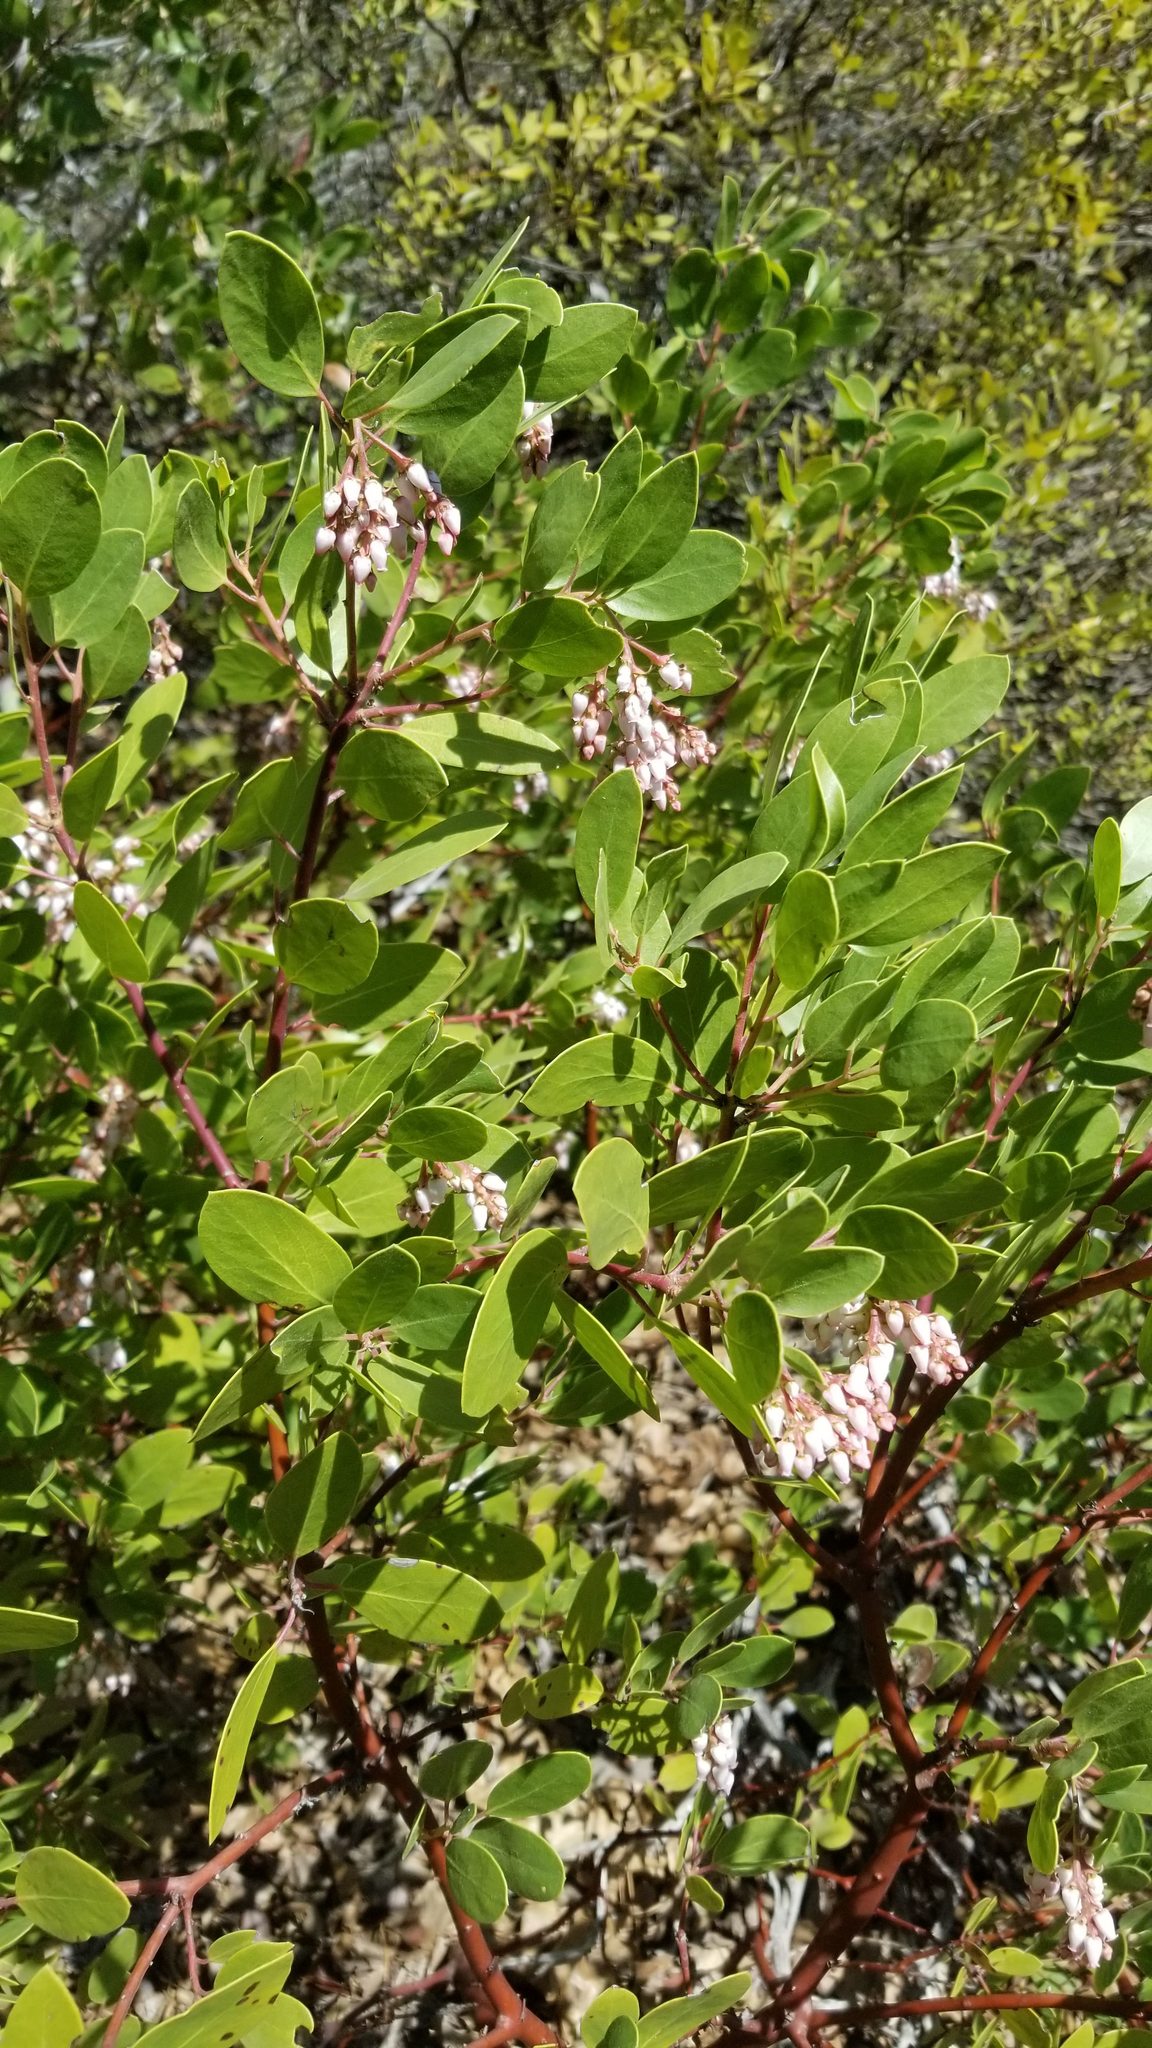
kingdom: Plantae
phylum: Tracheophyta
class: Magnoliopsida
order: Ericales
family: Ericaceae
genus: Arctostaphylos
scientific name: Arctostaphylos patula
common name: Green-leaf manzanita
